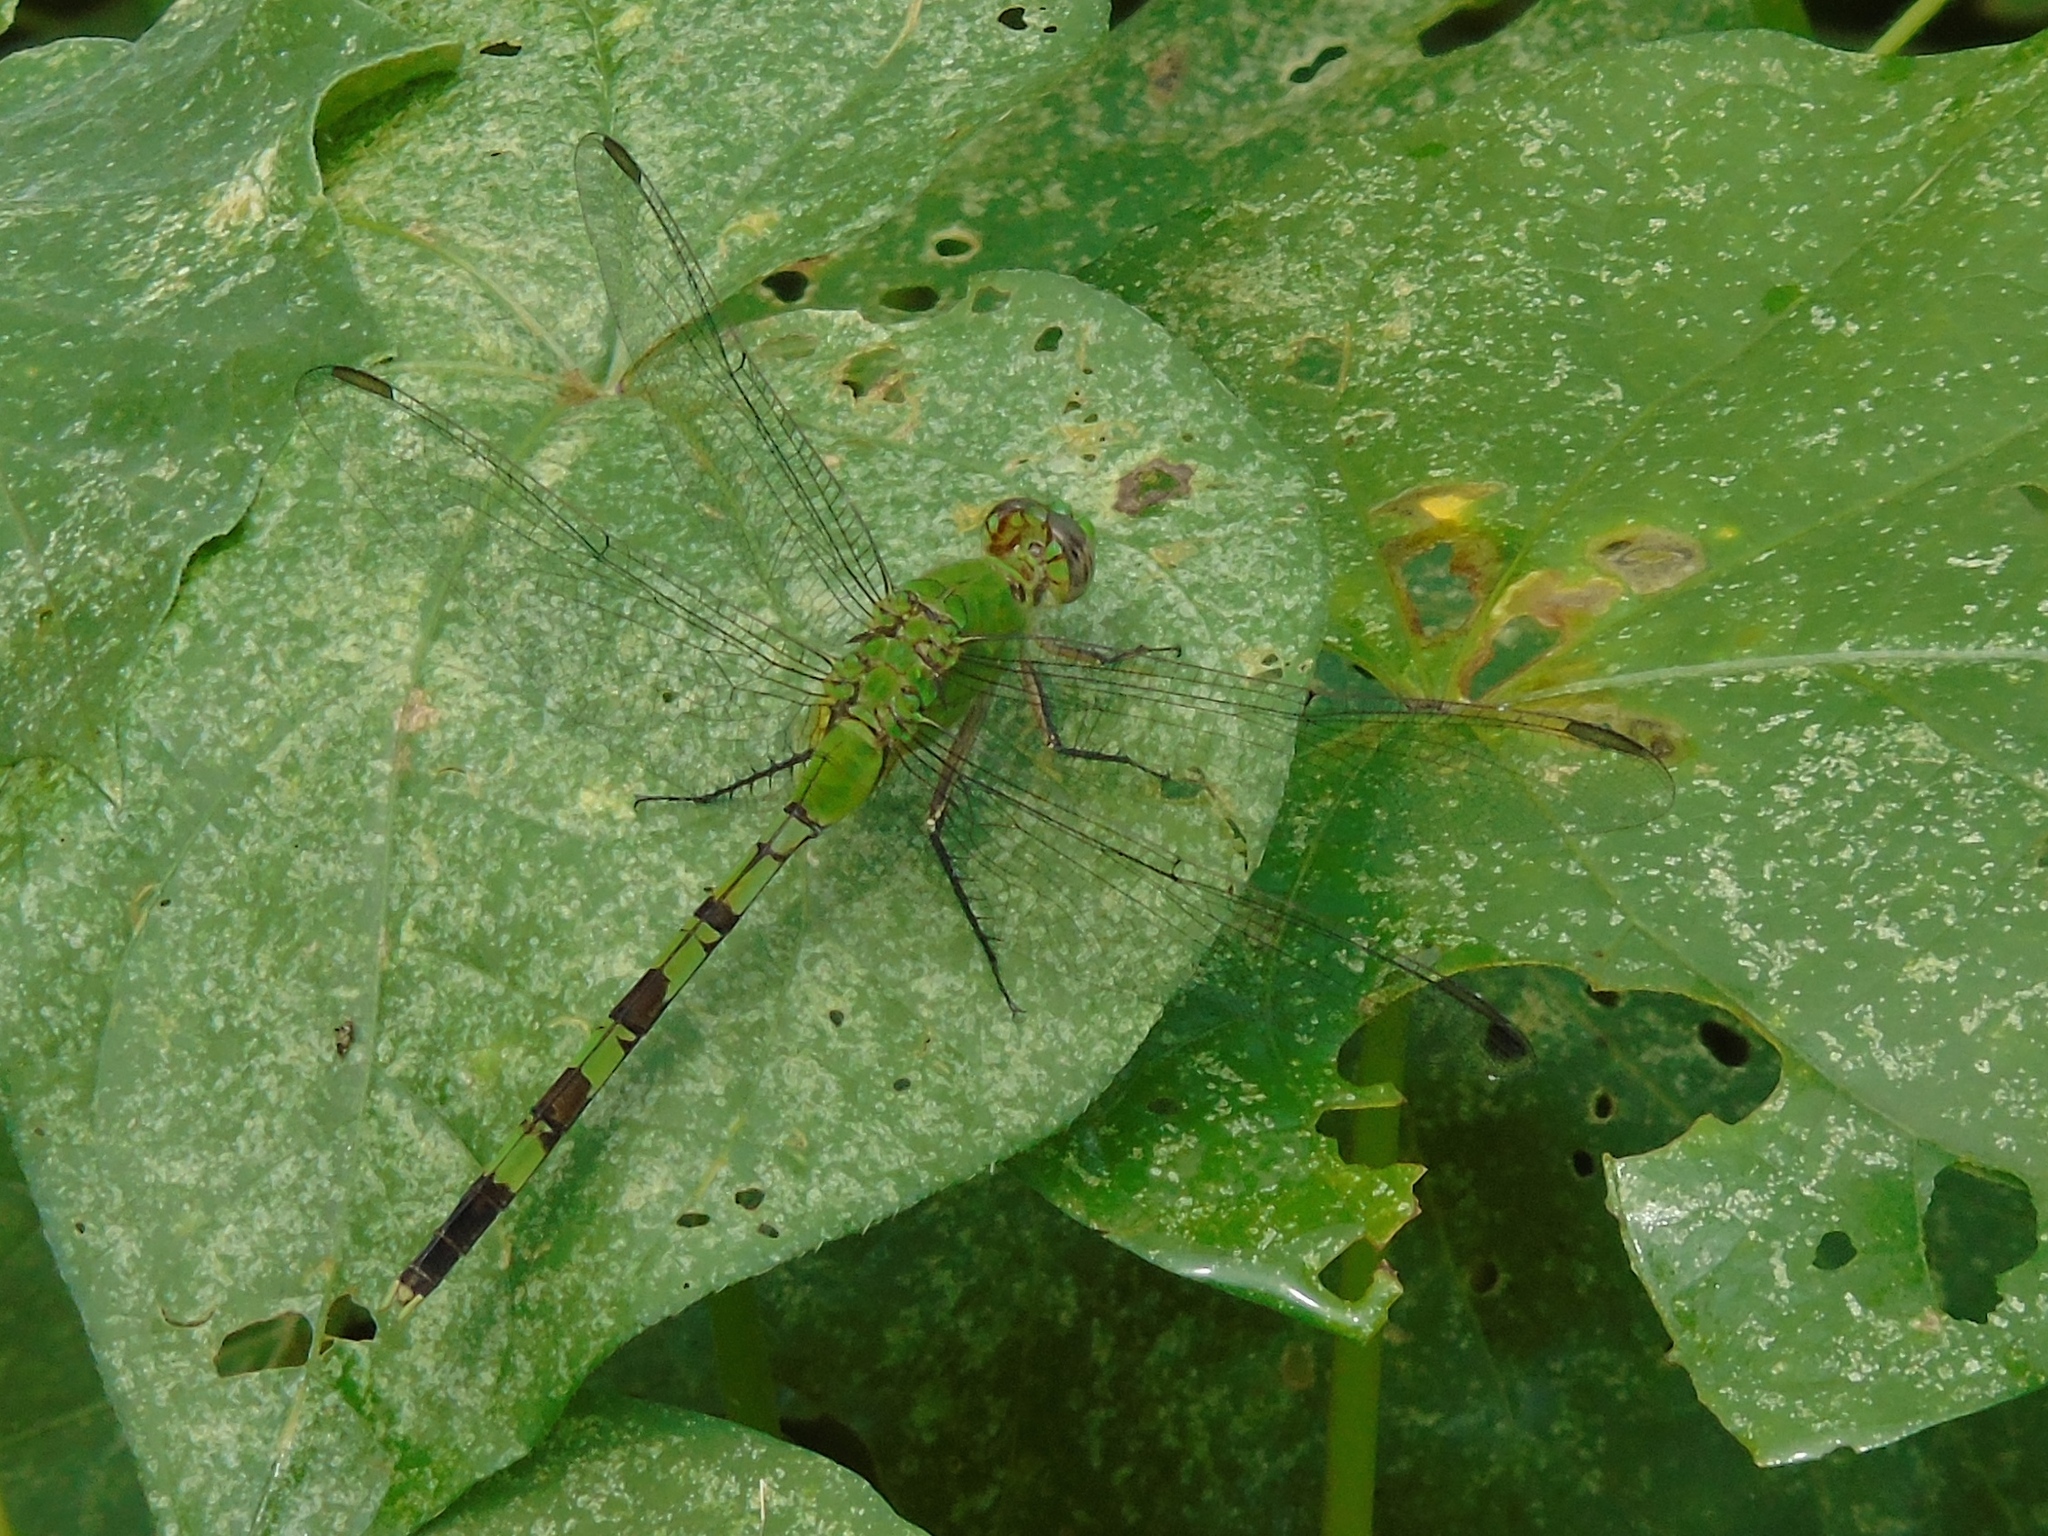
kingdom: Animalia
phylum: Arthropoda
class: Insecta
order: Odonata
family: Libellulidae
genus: Erythemis
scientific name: Erythemis vesiculosa
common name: Great pondhawk
